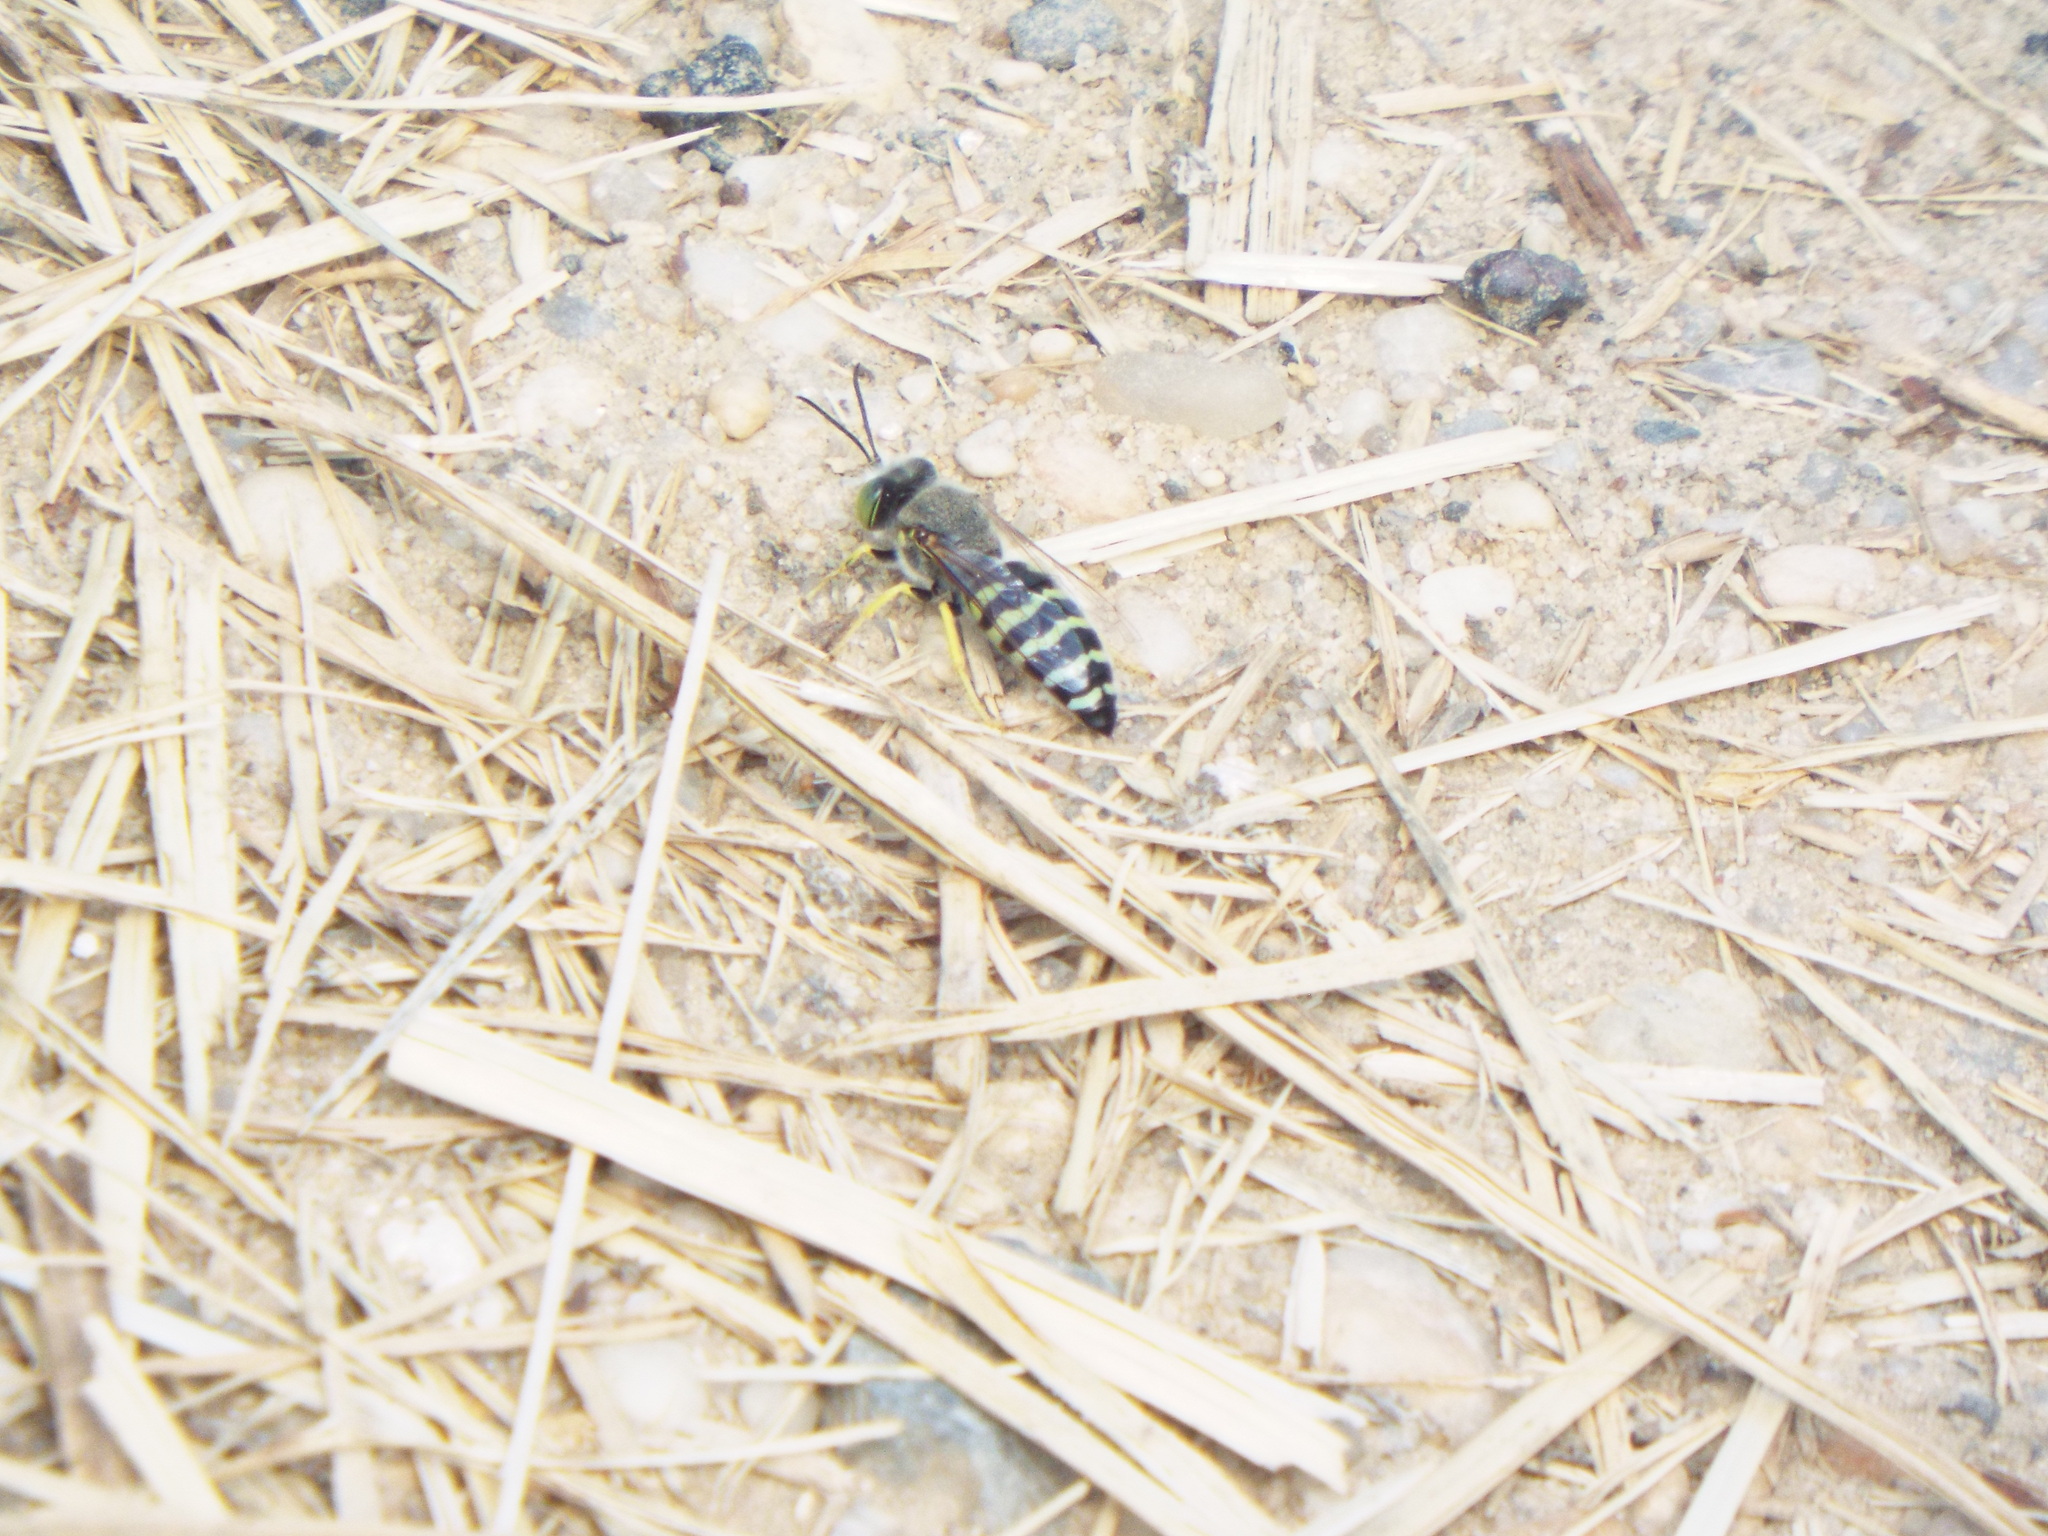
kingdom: Animalia
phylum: Arthropoda
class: Insecta
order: Hymenoptera
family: Crabronidae
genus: Bembix
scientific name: Bembix americana
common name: American sand wasp
